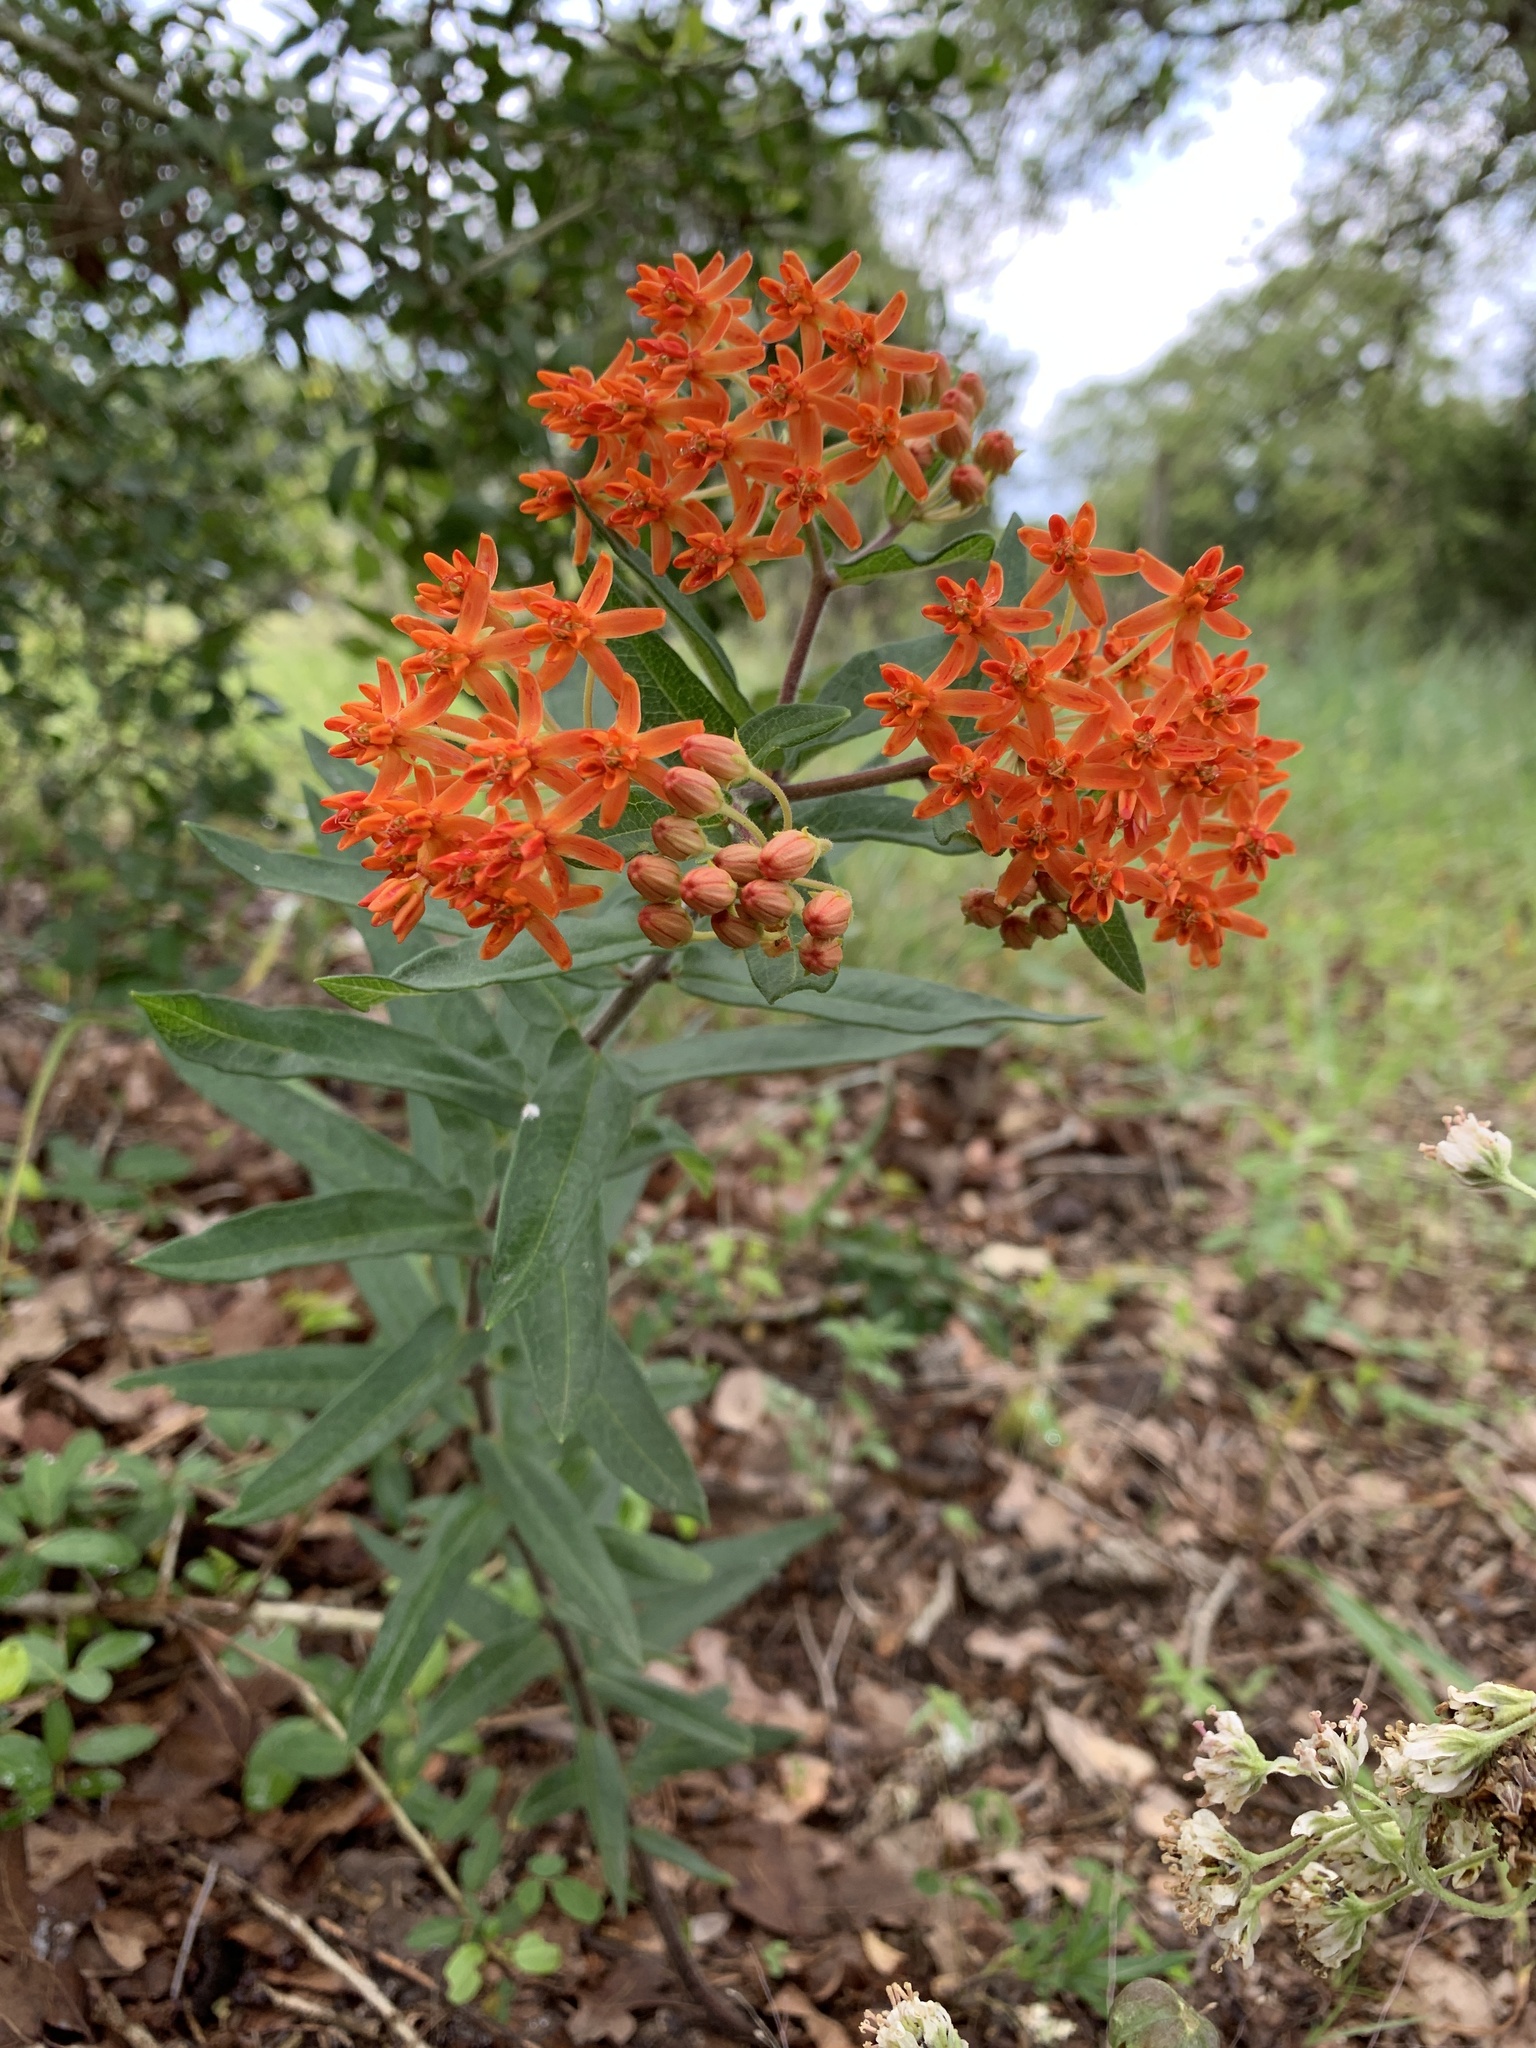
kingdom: Plantae
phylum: Tracheophyta
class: Magnoliopsida
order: Gentianales
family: Apocynaceae
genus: Asclepias
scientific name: Asclepias tuberosa
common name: Butterfly milkweed
